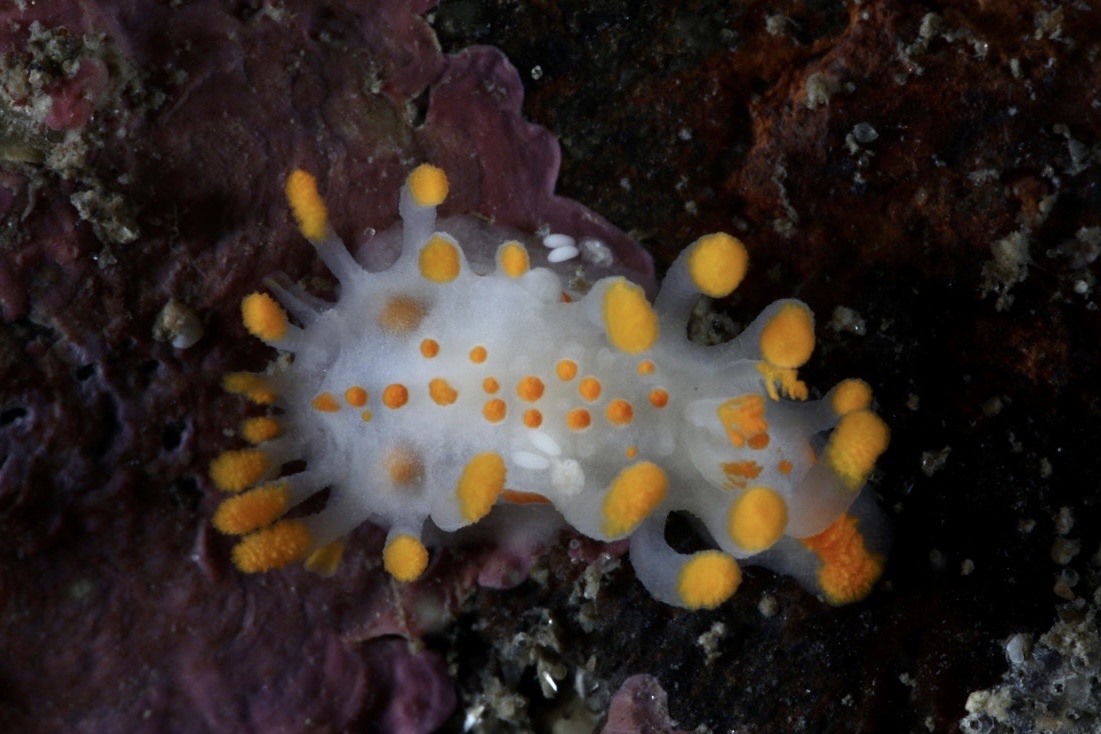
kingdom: Animalia
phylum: Mollusca
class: Gastropoda
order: Nudibranchia
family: Polyceridae
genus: Limacia
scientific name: Limacia clavigera
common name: Orange-clubbed sea slug
